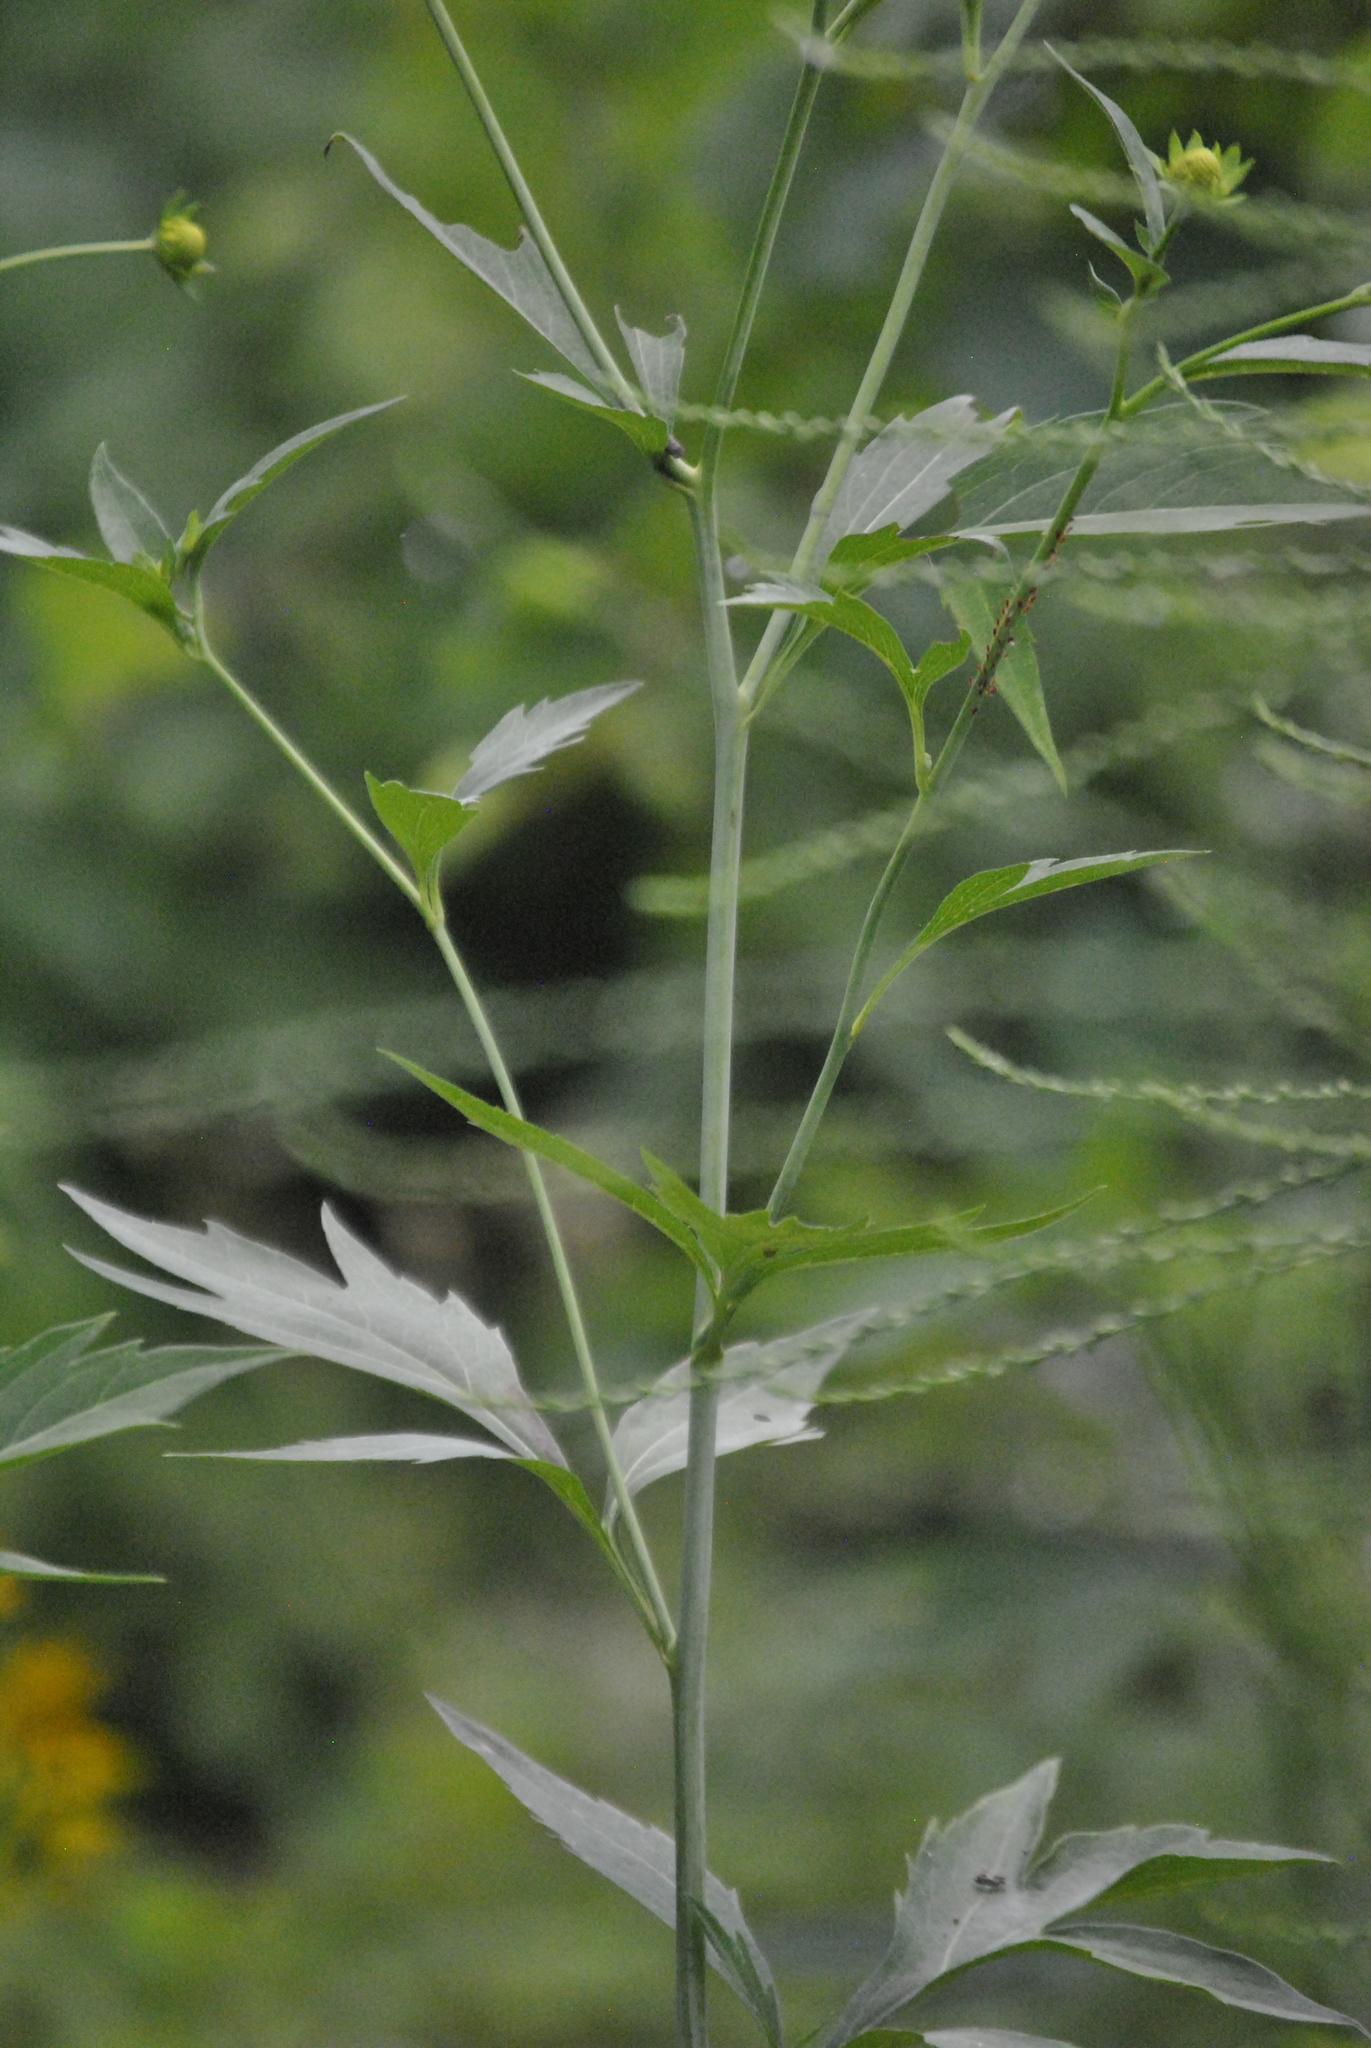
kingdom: Plantae
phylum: Tracheophyta
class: Magnoliopsida
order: Asterales
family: Asteraceae
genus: Rudbeckia
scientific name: Rudbeckia laciniata
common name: Coneflower
